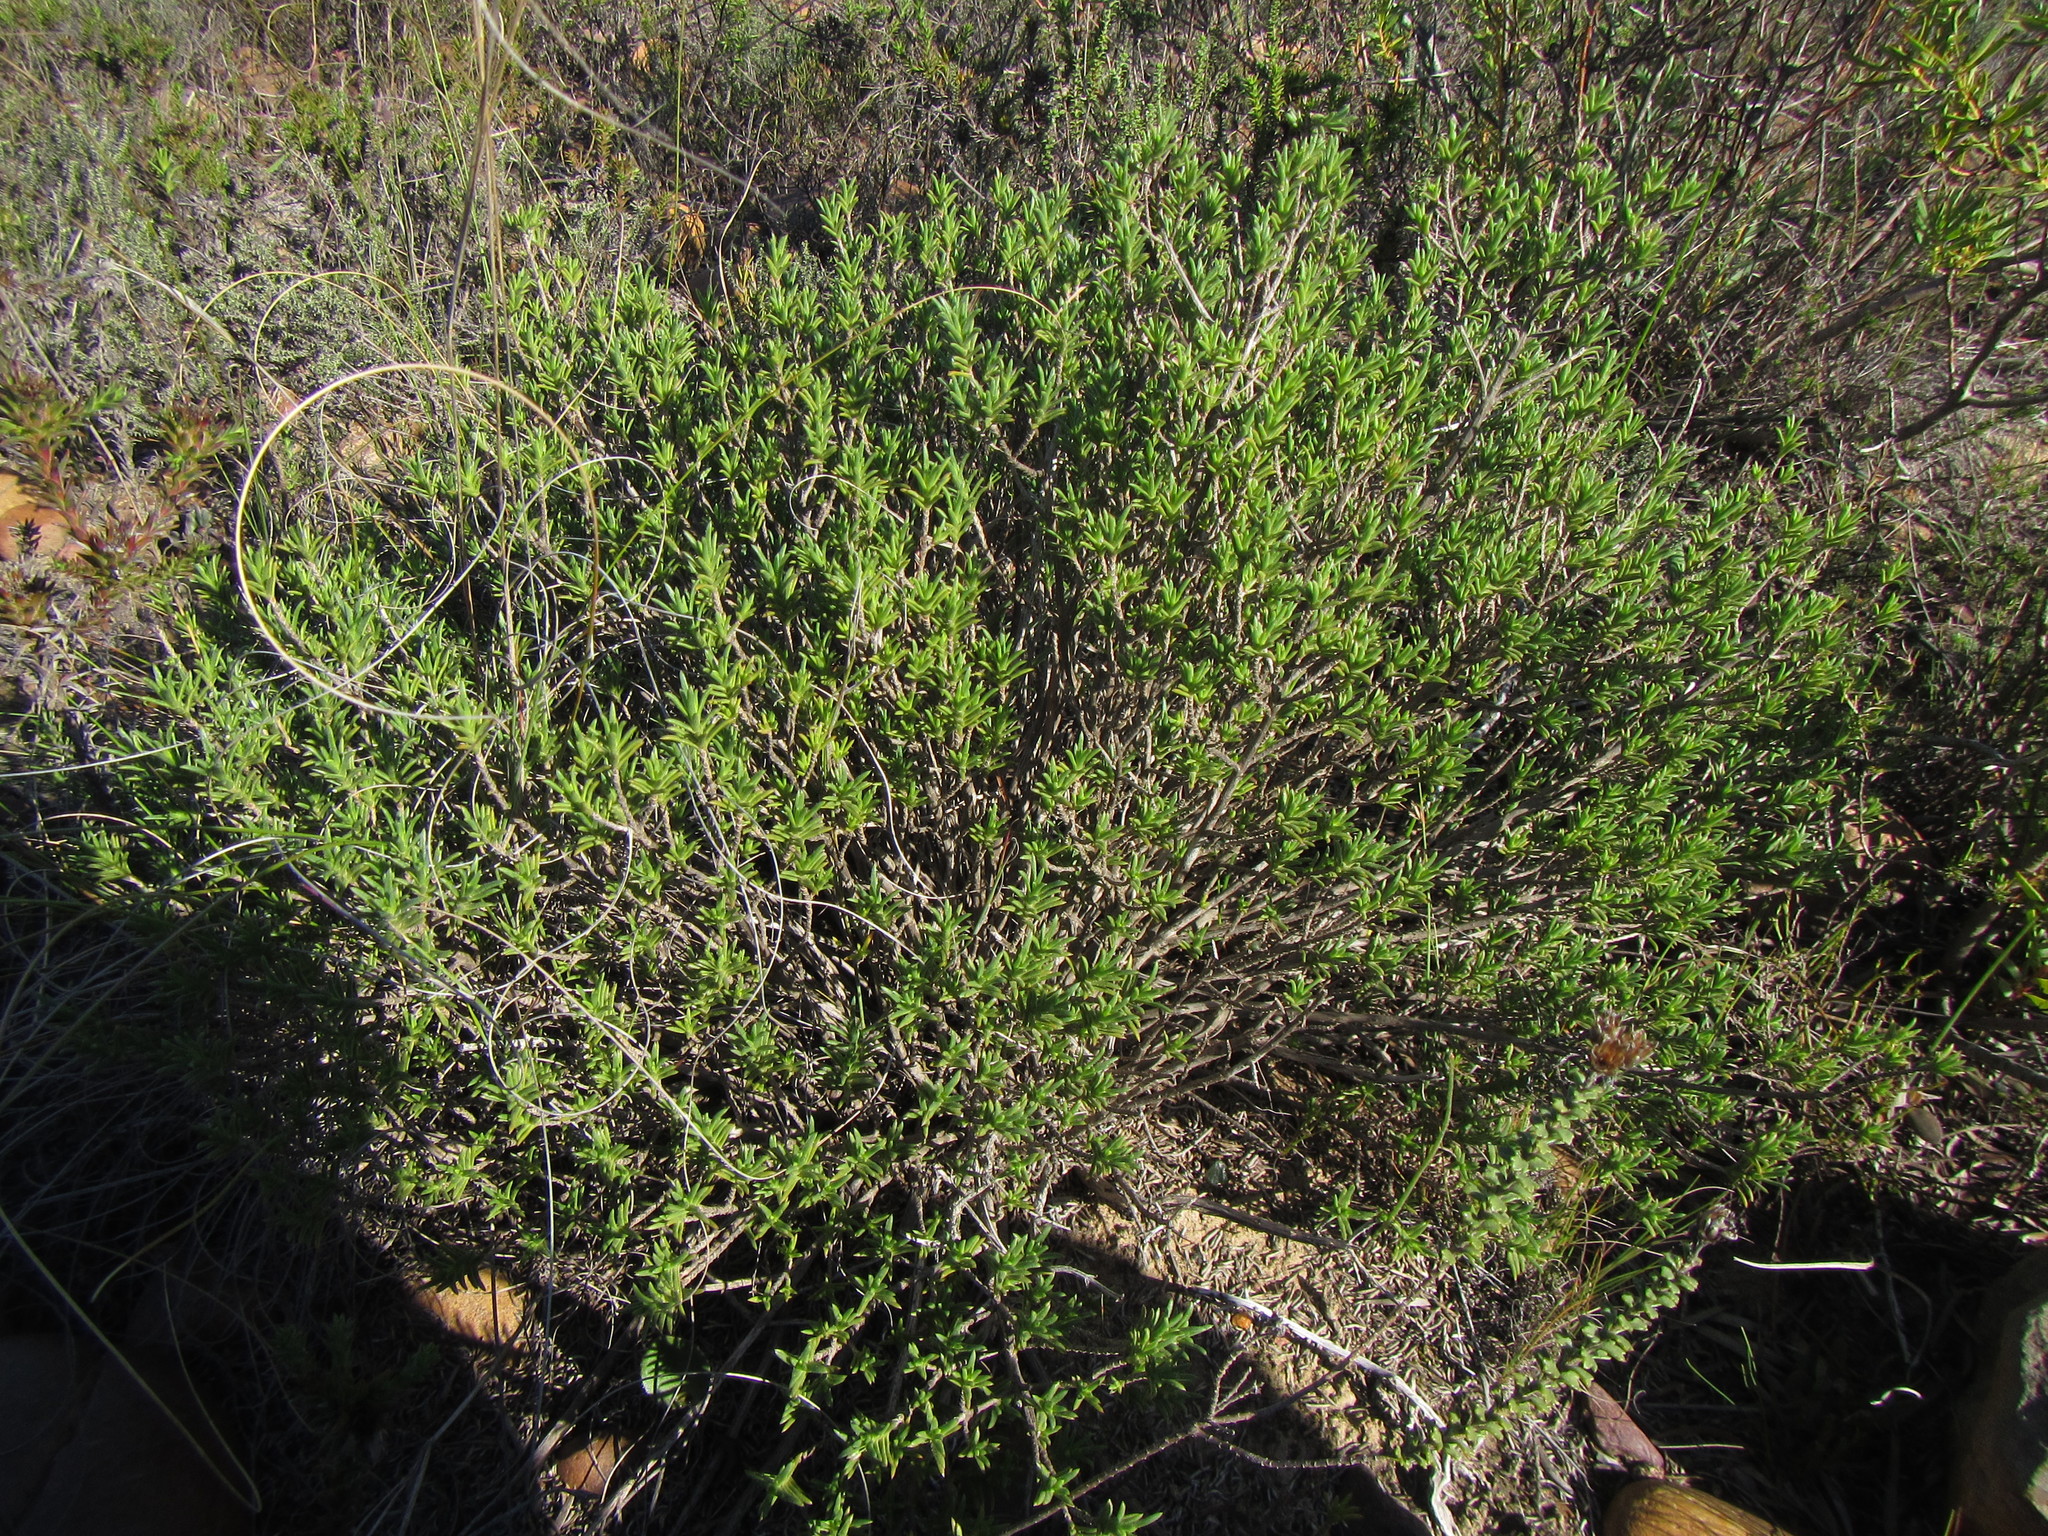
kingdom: Plantae
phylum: Tracheophyta
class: Magnoliopsida
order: Asterales
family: Asteraceae
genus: Pteronia
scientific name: Pteronia elongata
